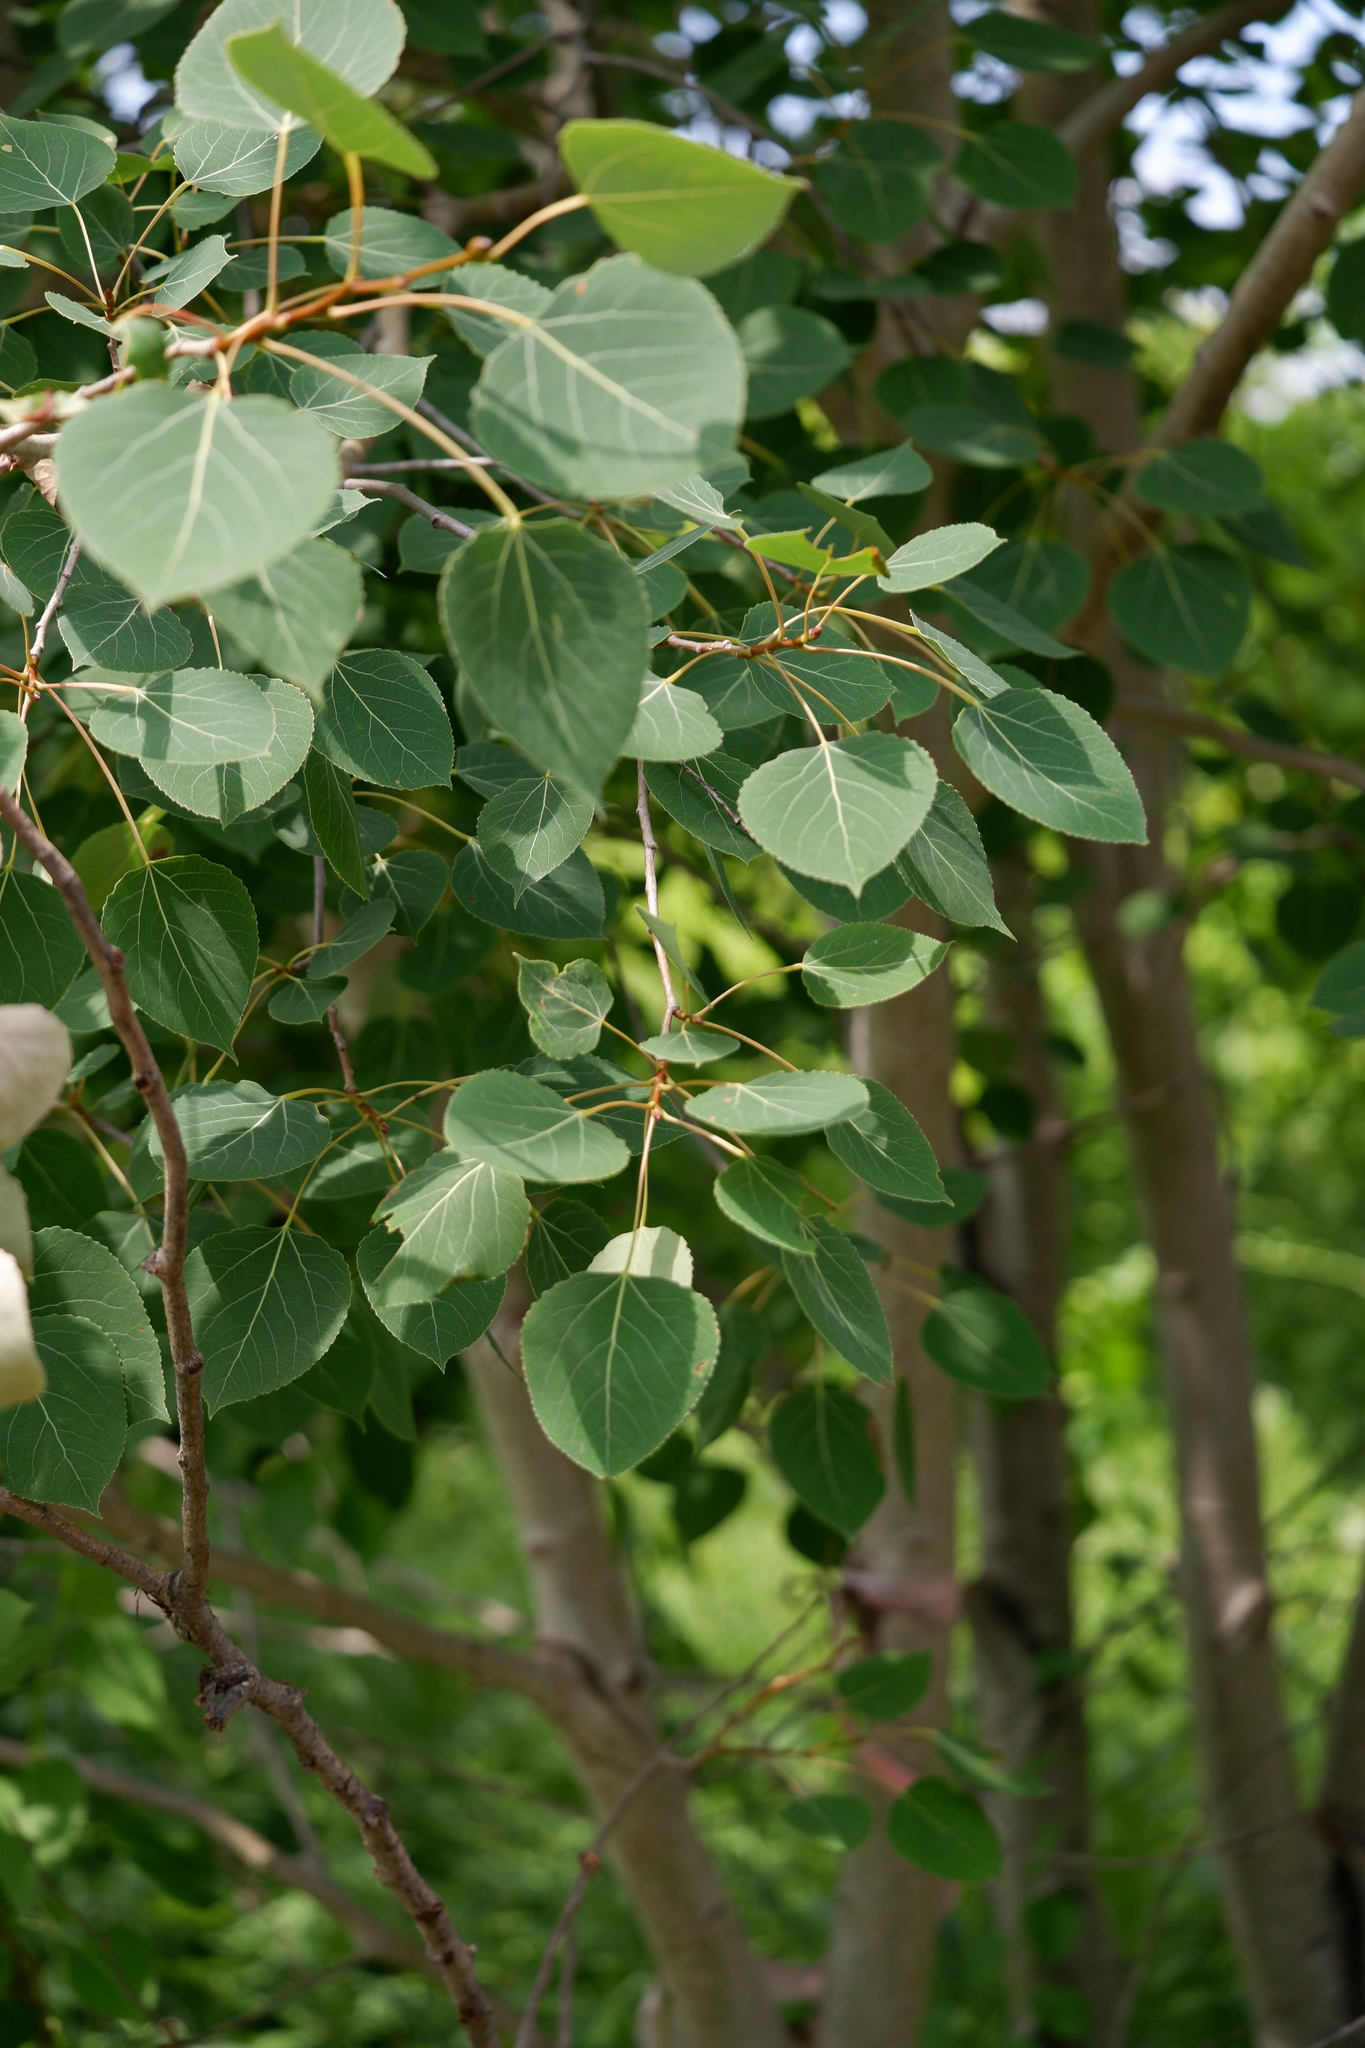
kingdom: Plantae
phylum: Tracheophyta
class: Magnoliopsida
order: Malpighiales
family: Salicaceae
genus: Populus
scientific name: Populus tremuloides
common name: Quaking aspen
